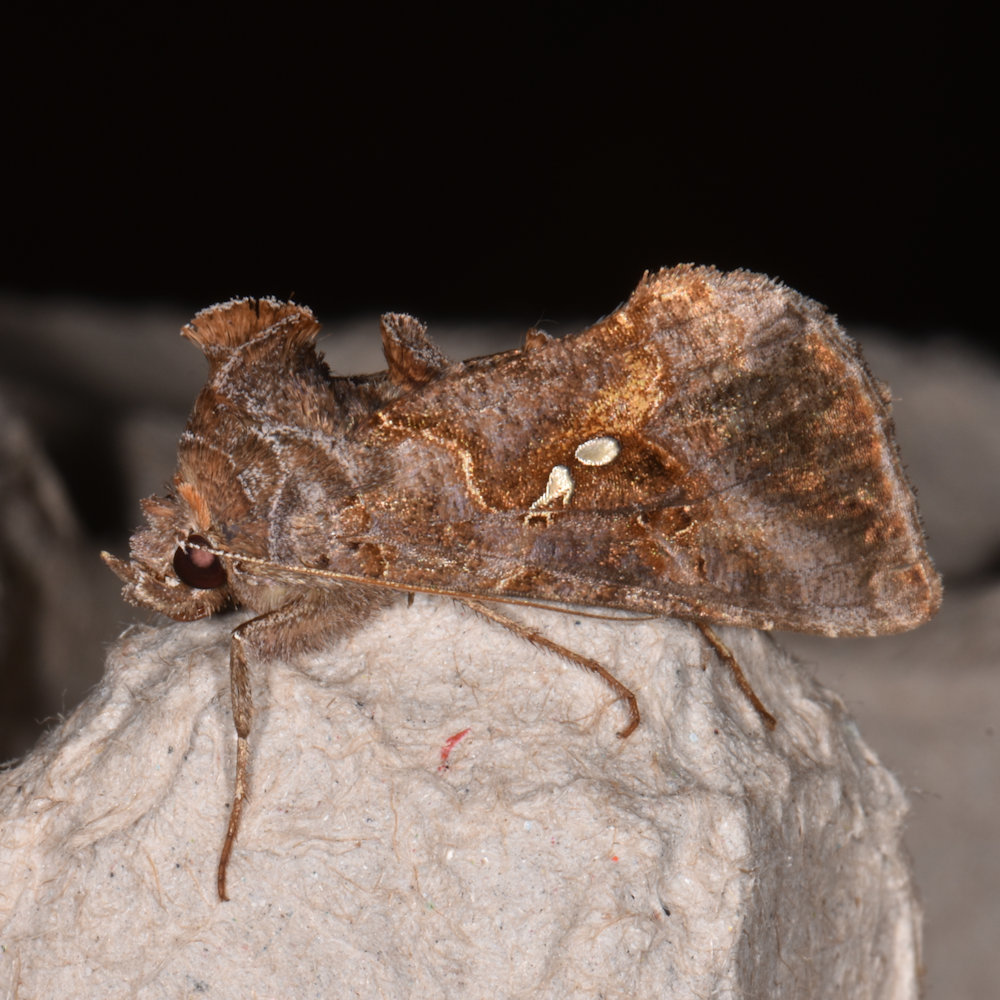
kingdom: Animalia
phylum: Arthropoda
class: Insecta
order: Lepidoptera
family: Noctuidae
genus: Autographa
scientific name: Autographa precationis
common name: Common looper moth
